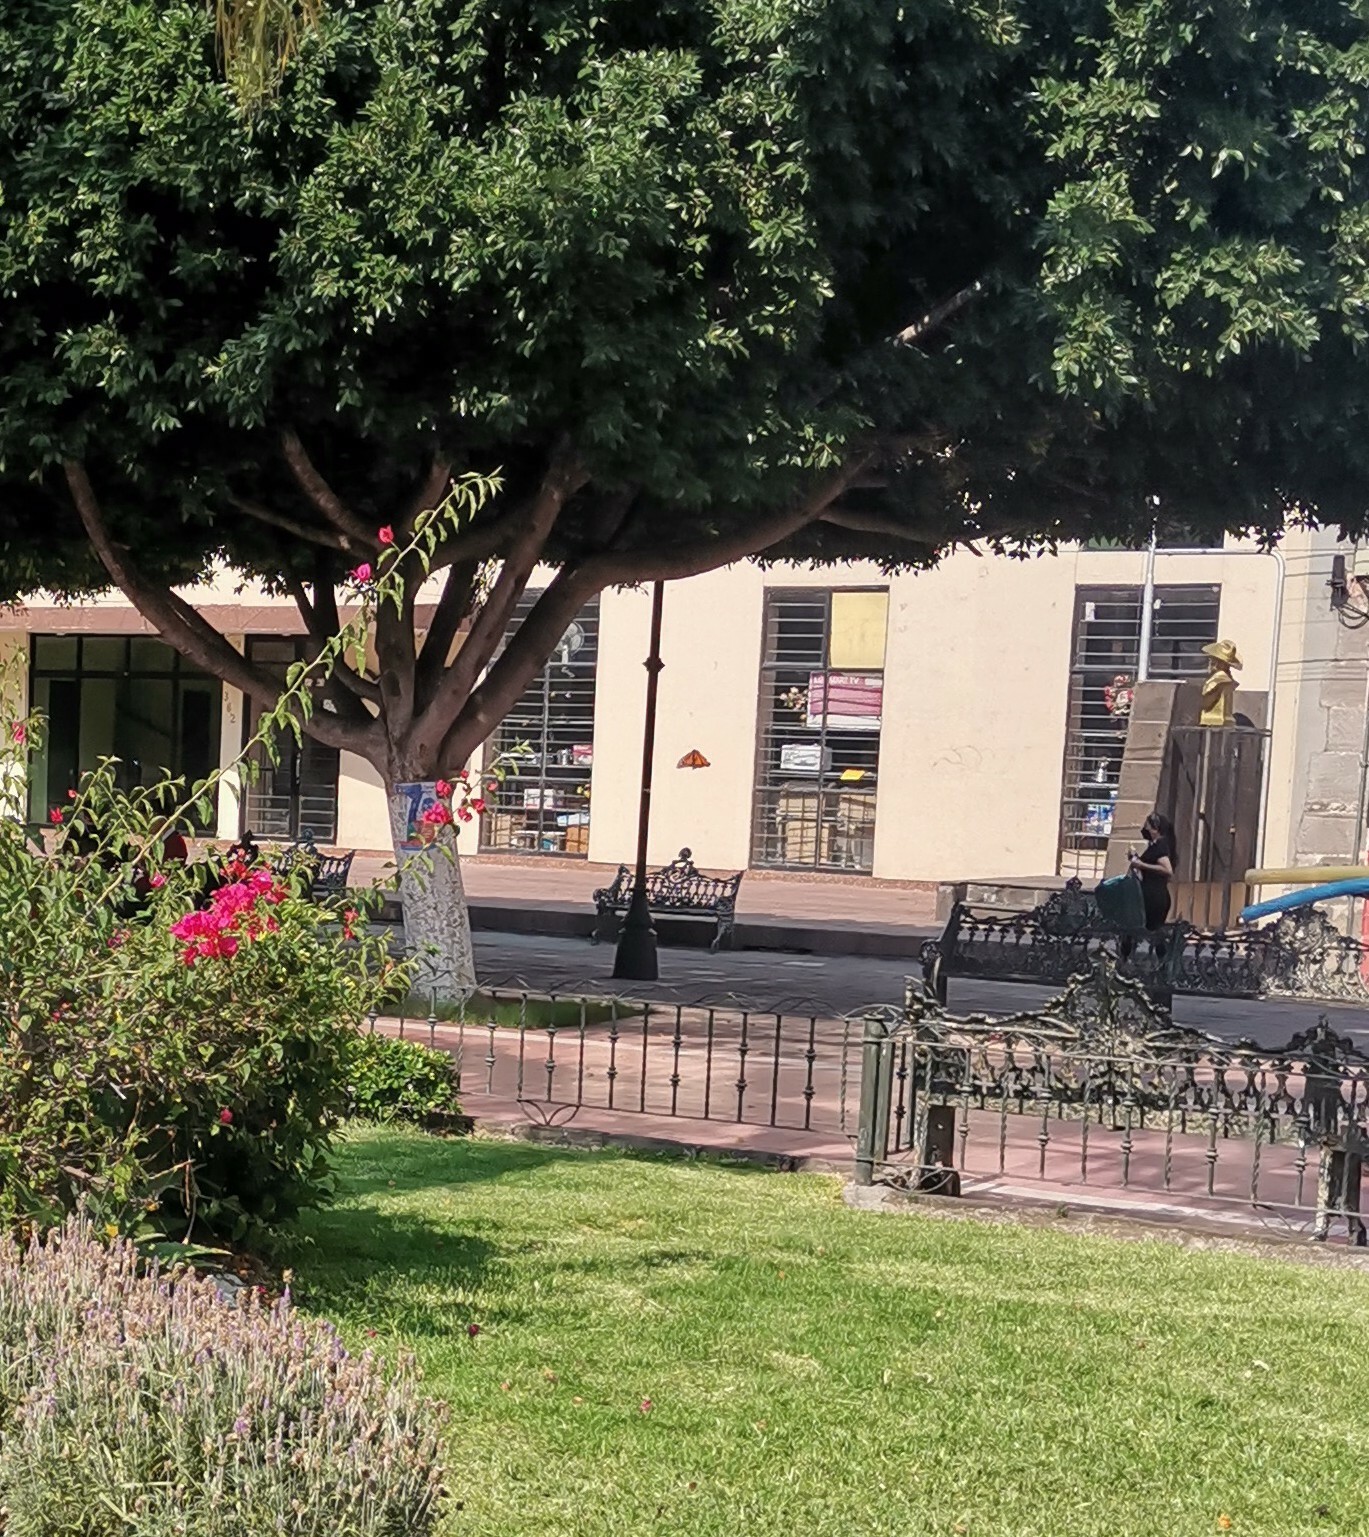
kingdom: Animalia
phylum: Arthropoda
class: Insecta
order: Lepidoptera
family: Nymphalidae
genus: Danaus
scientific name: Danaus plexippus
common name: Monarch
